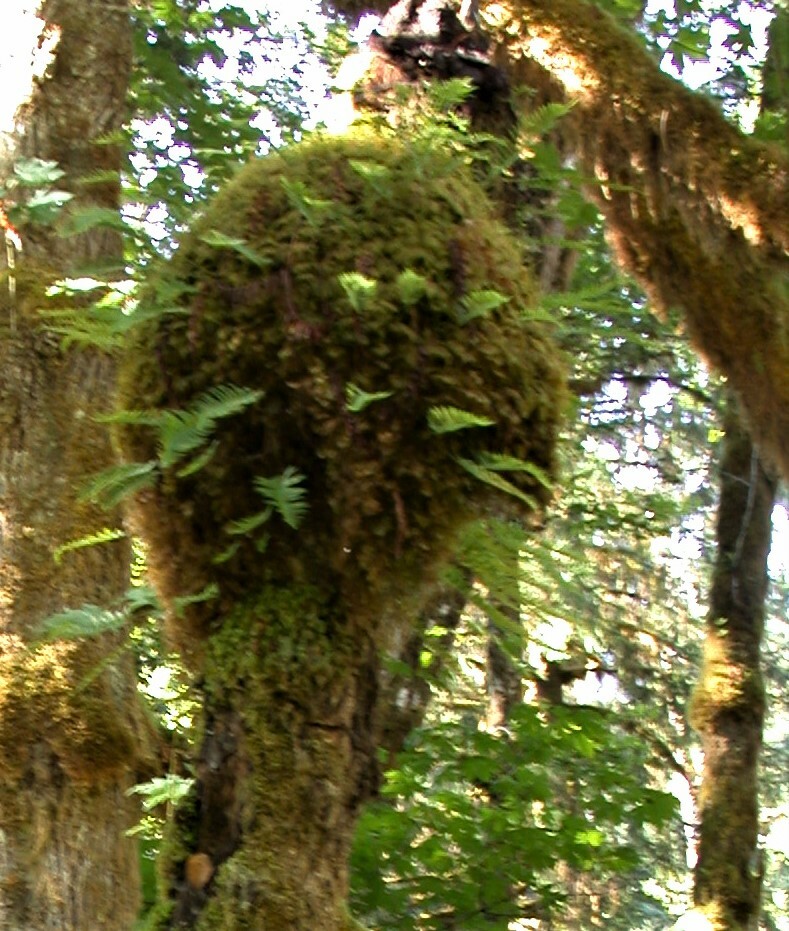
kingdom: Plantae
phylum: Tracheophyta
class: Polypodiopsida
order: Polypodiales
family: Polypodiaceae
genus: Polypodium
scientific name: Polypodium glycyrrhiza
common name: Licorice fern
